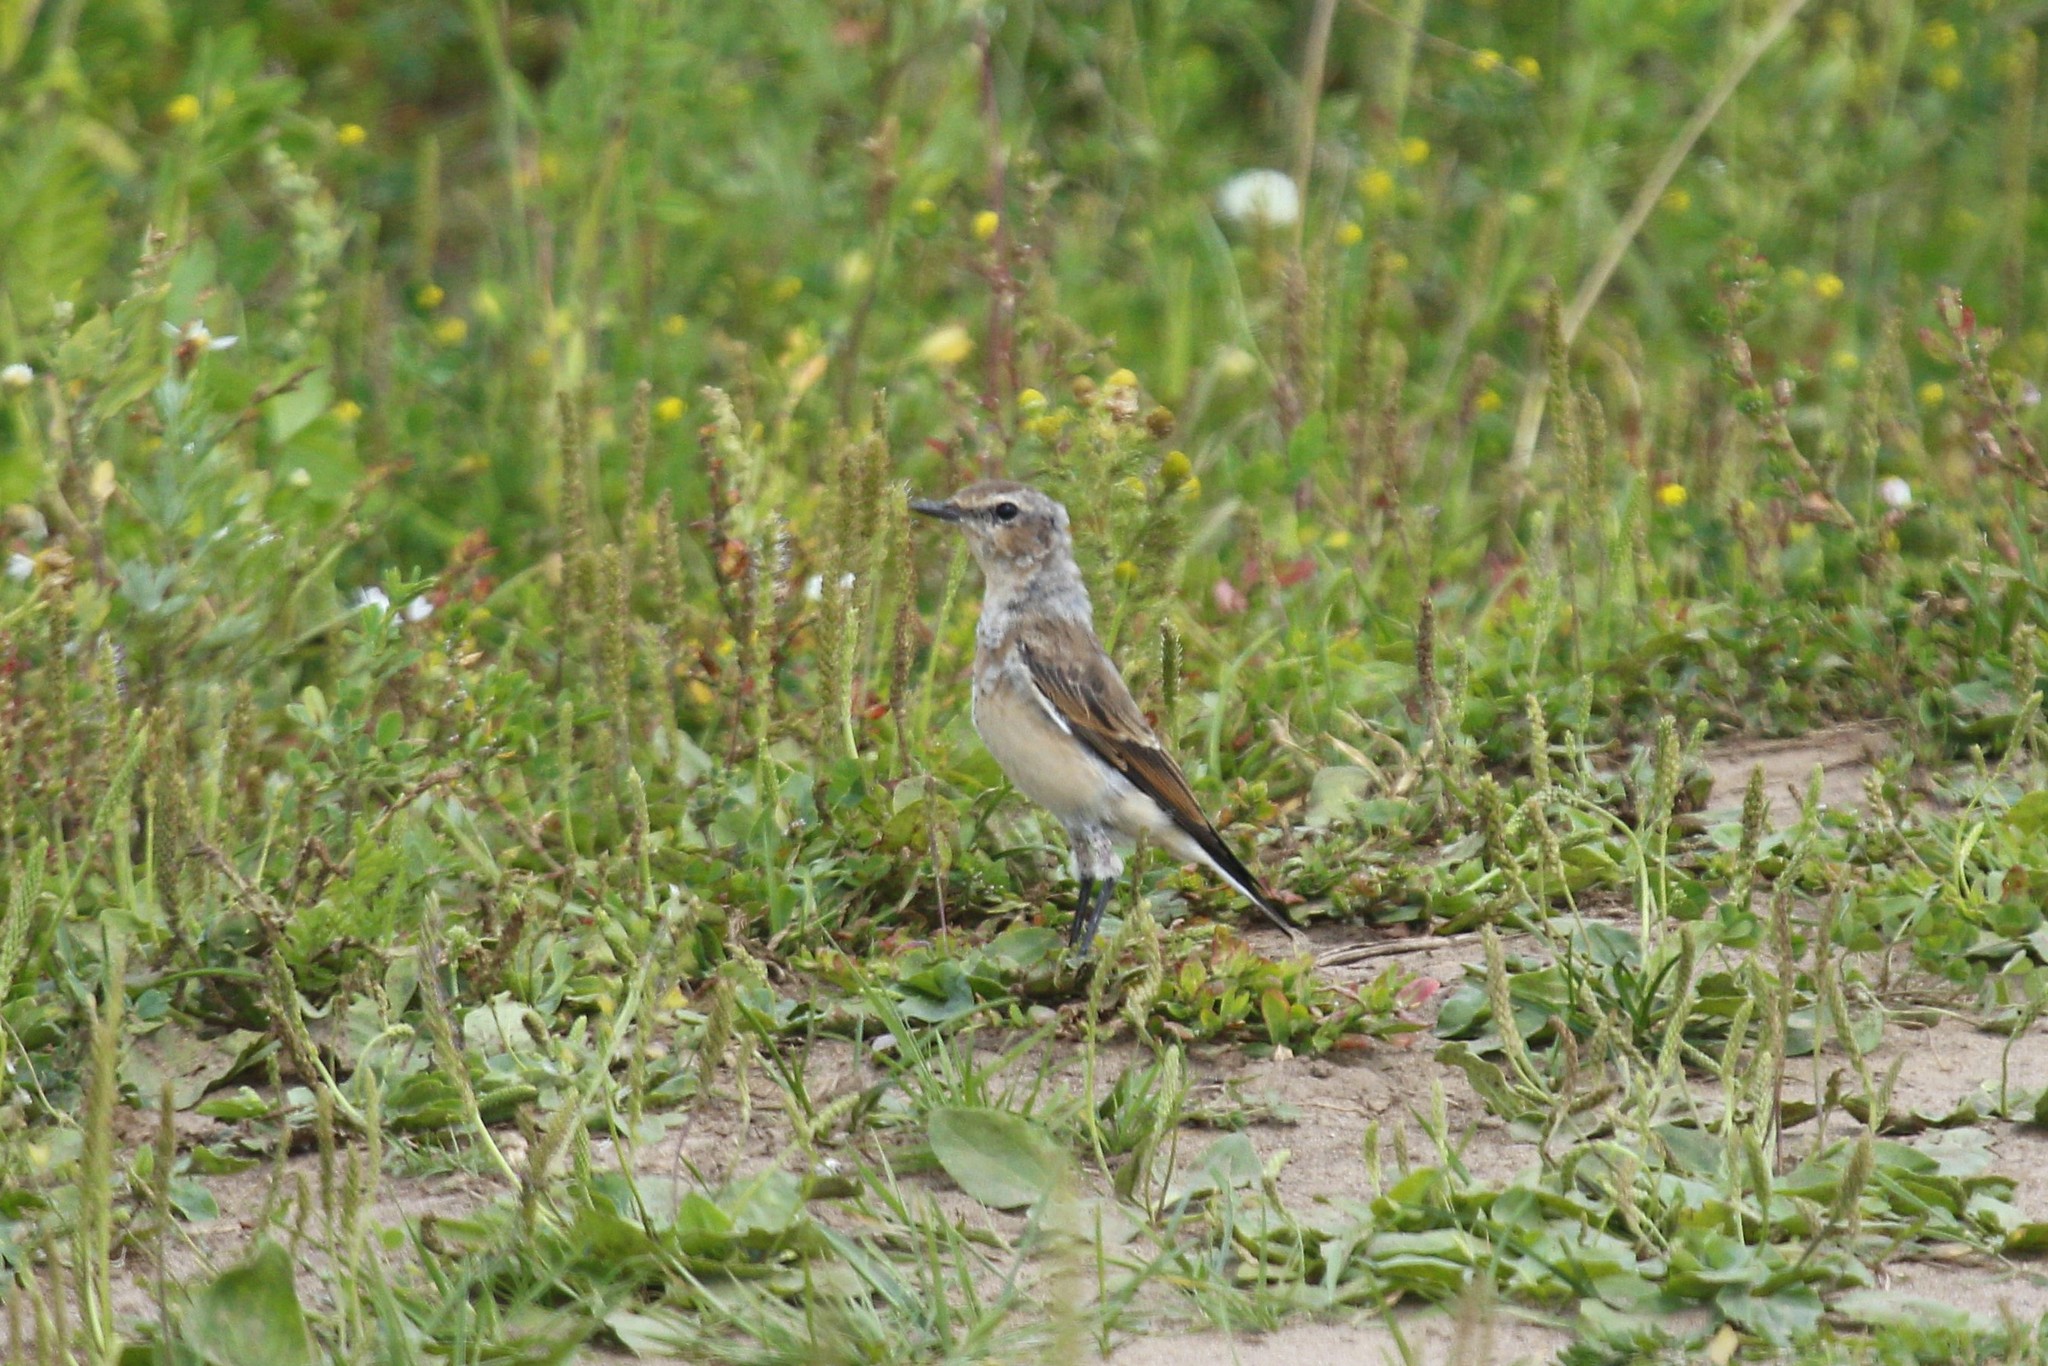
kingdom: Animalia
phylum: Chordata
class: Aves
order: Passeriformes
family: Muscicapidae
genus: Oenanthe
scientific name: Oenanthe oenanthe
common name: Northern wheatear
